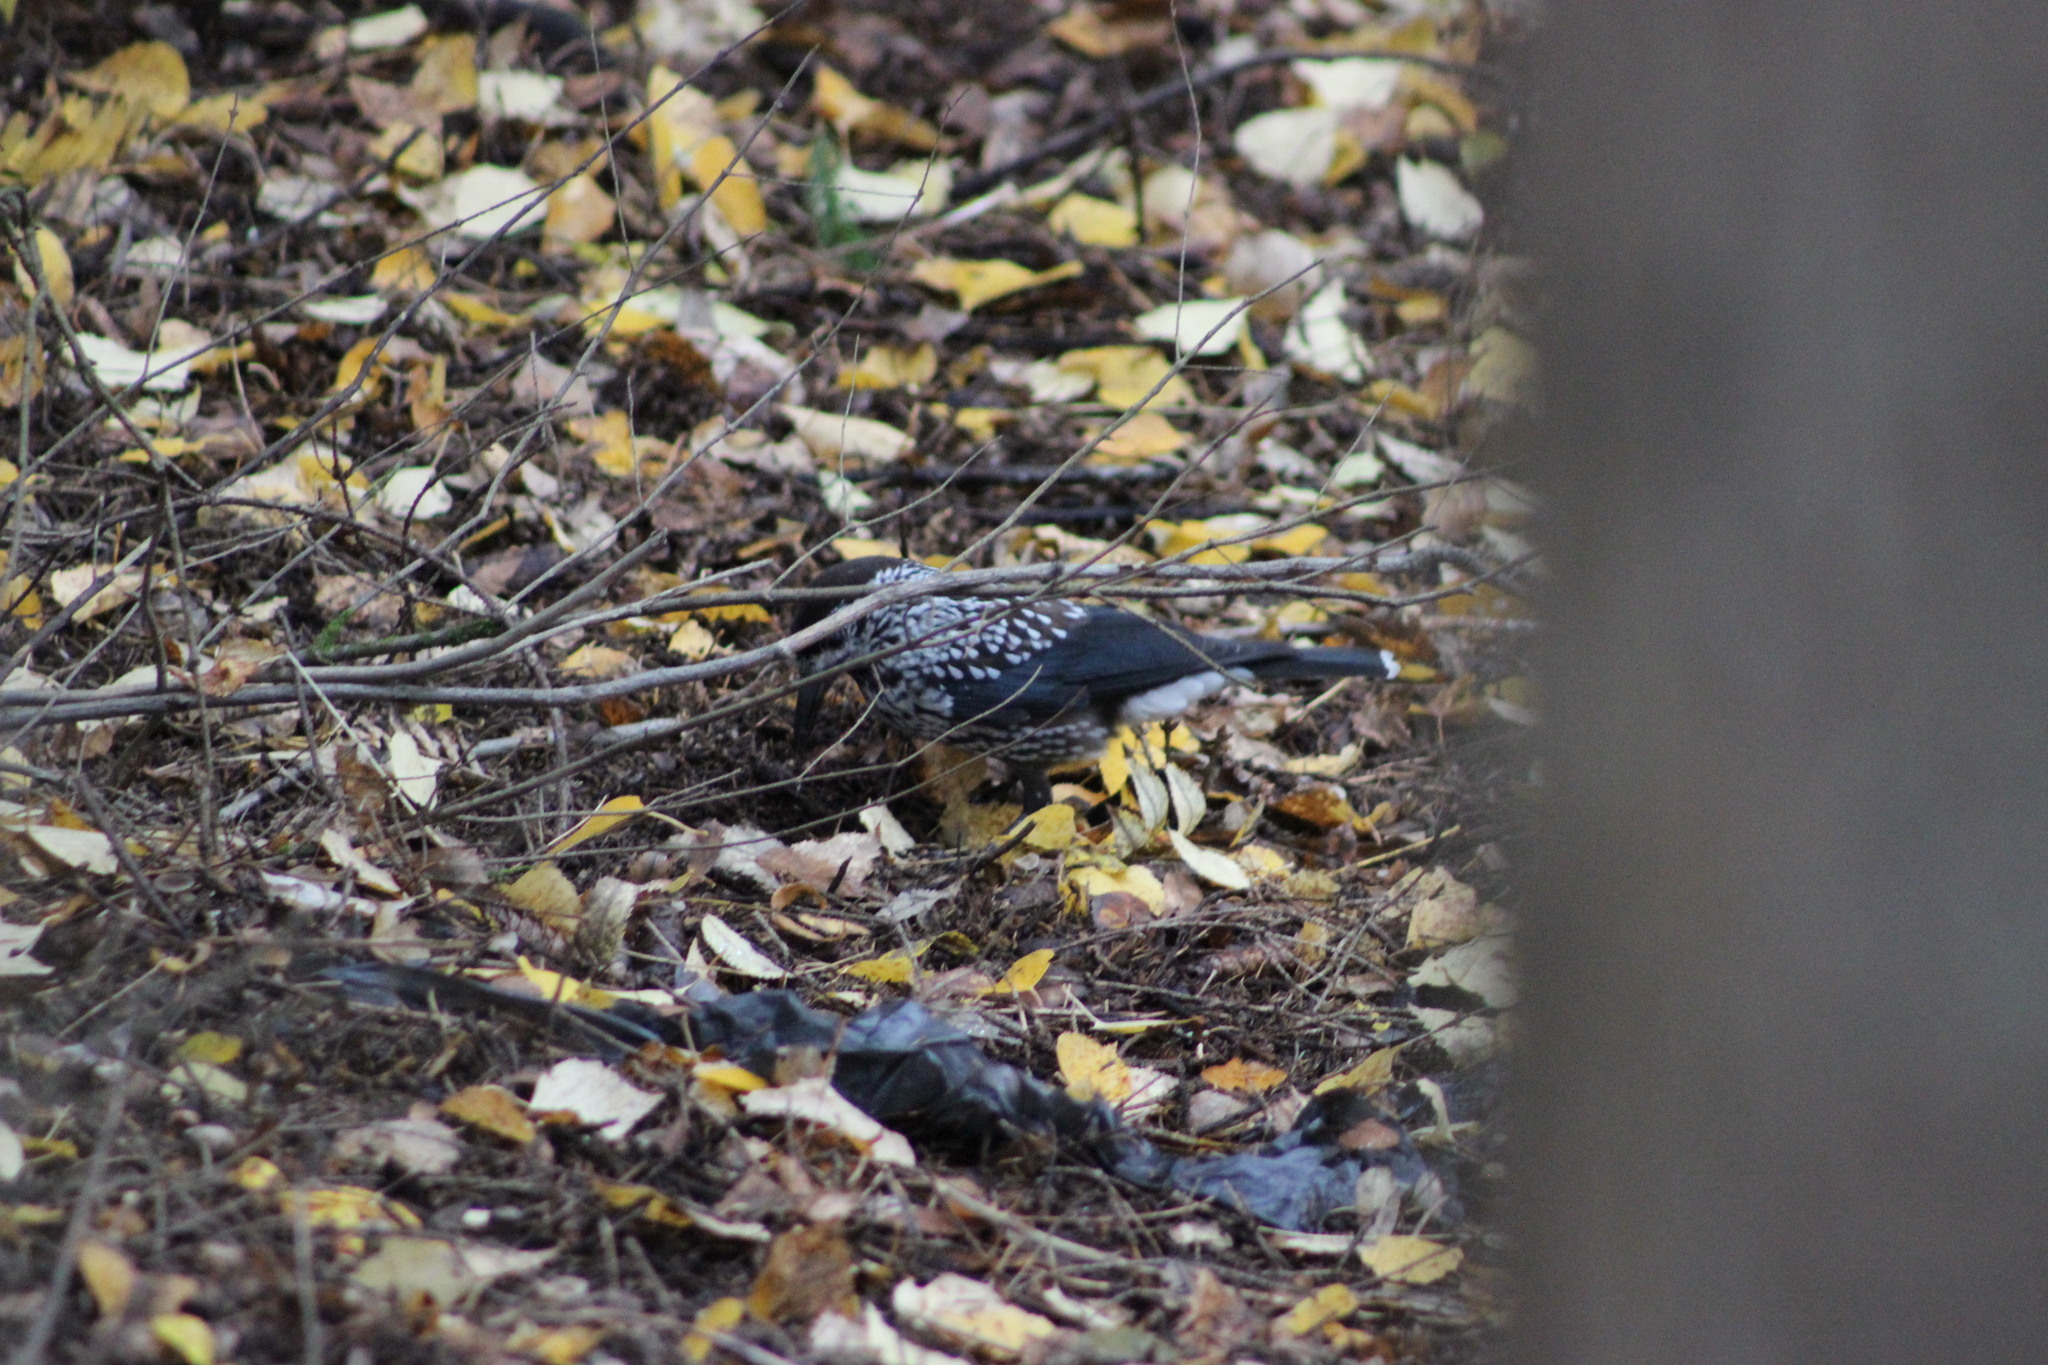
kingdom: Animalia
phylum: Chordata
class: Aves
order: Passeriformes
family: Corvidae
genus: Nucifraga
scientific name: Nucifraga caryocatactes
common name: Spotted nutcracker
